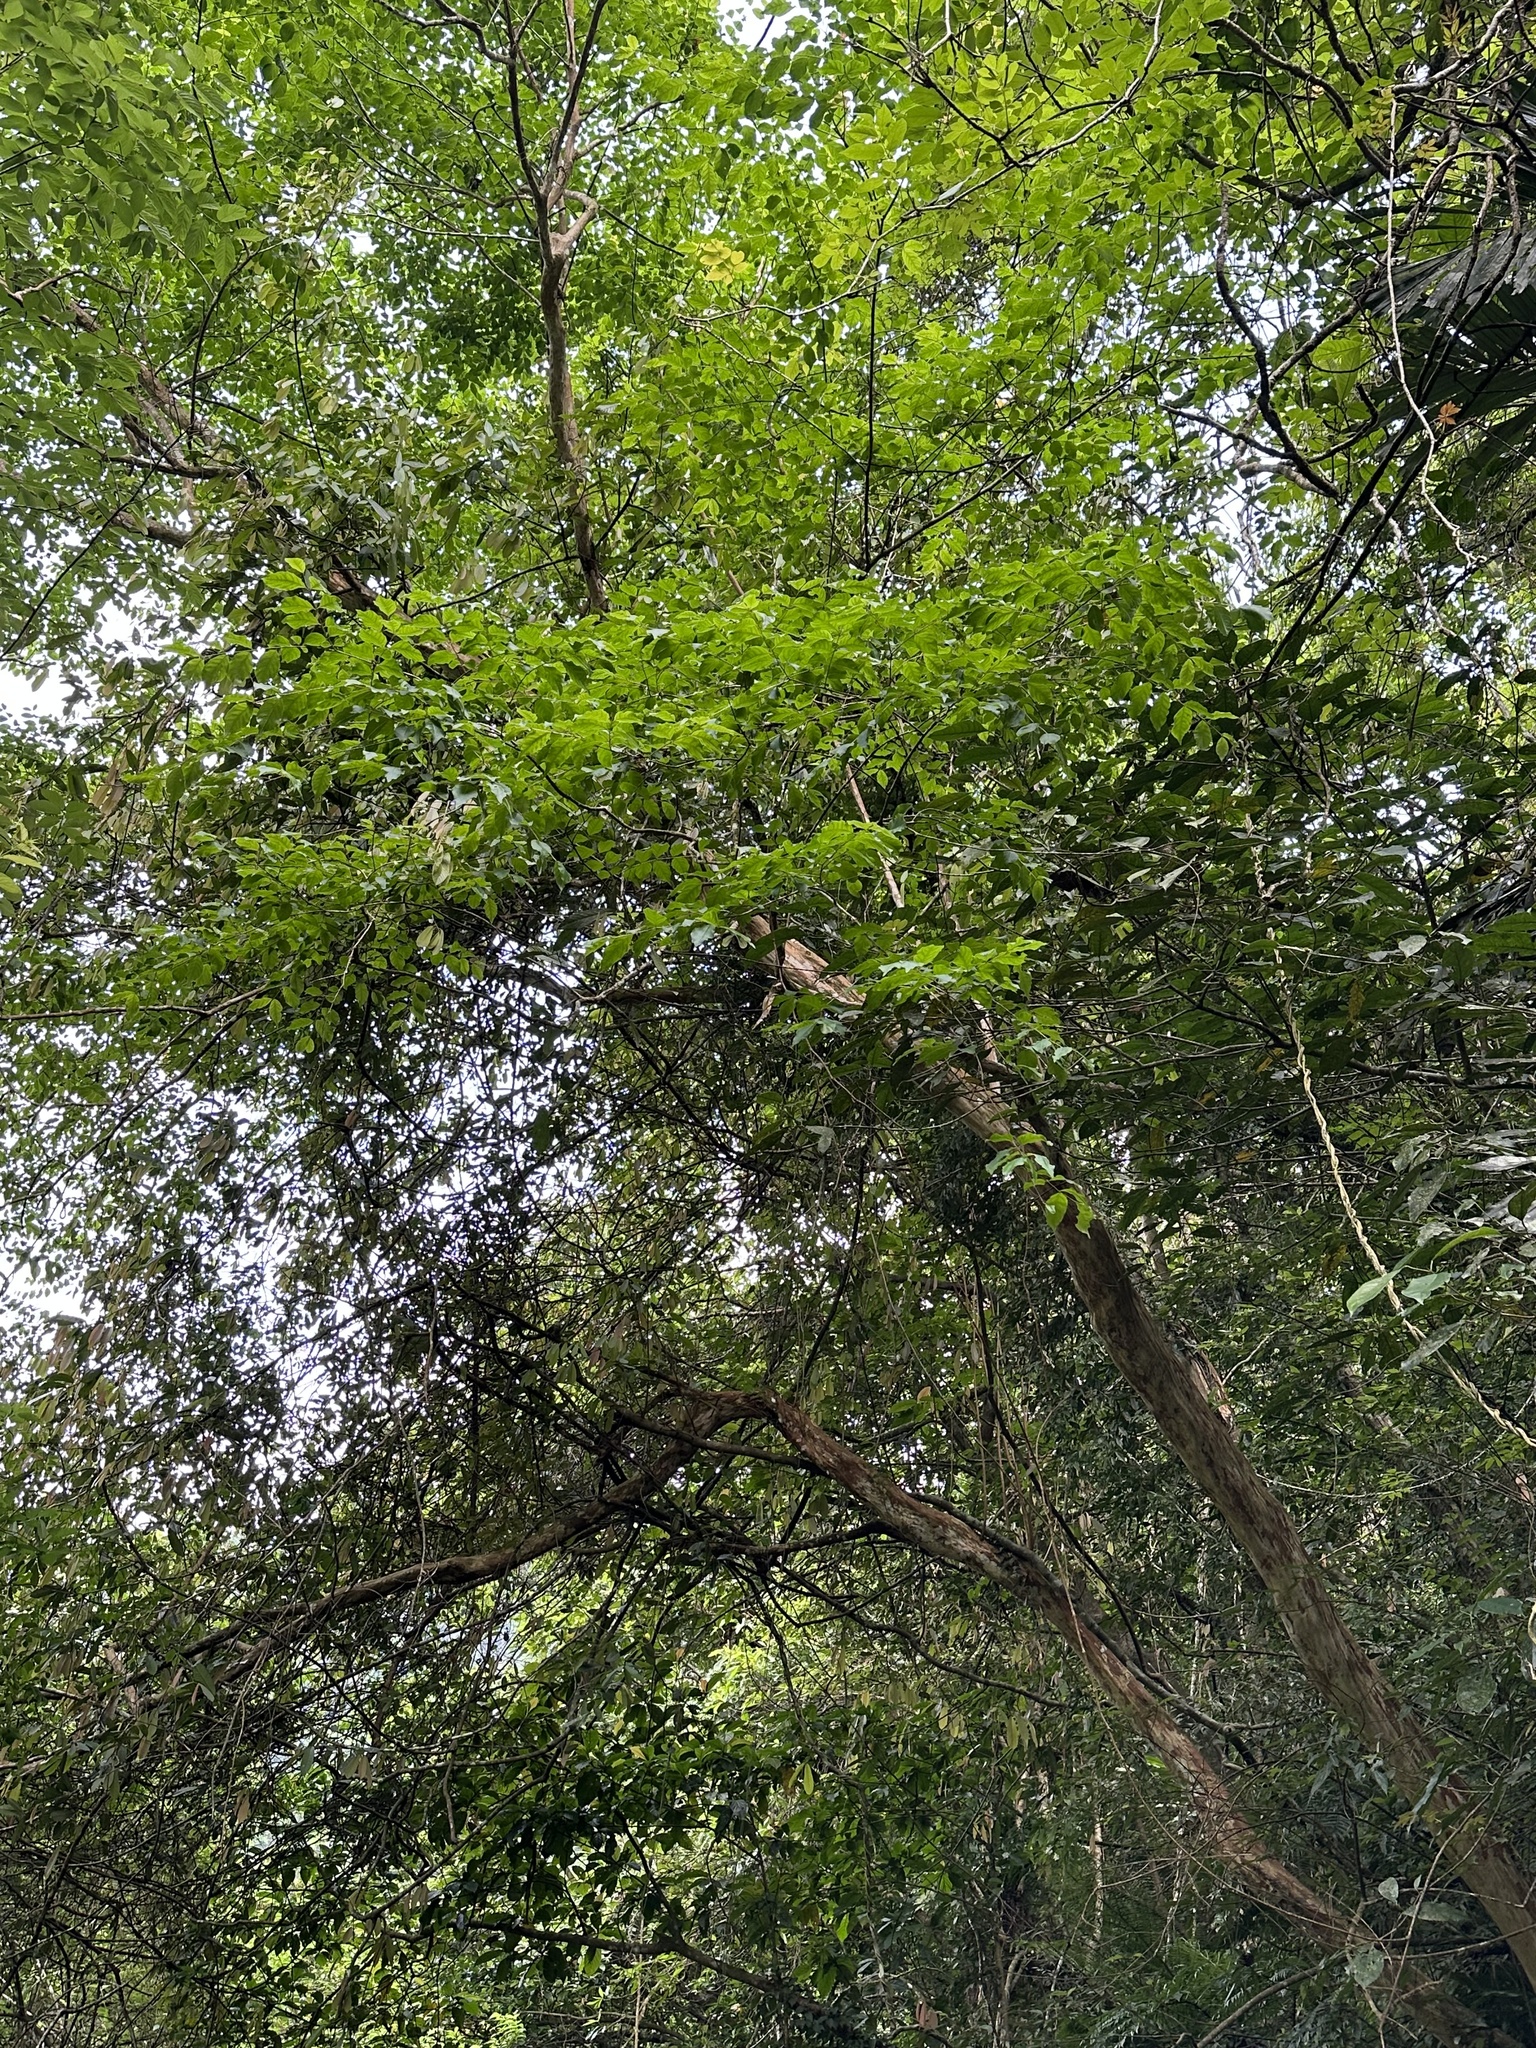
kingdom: Plantae
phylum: Tracheophyta
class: Magnoliopsida
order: Myrtales
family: Lythraceae
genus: Lagerstroemia
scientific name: Lagerstroemia subcostata
